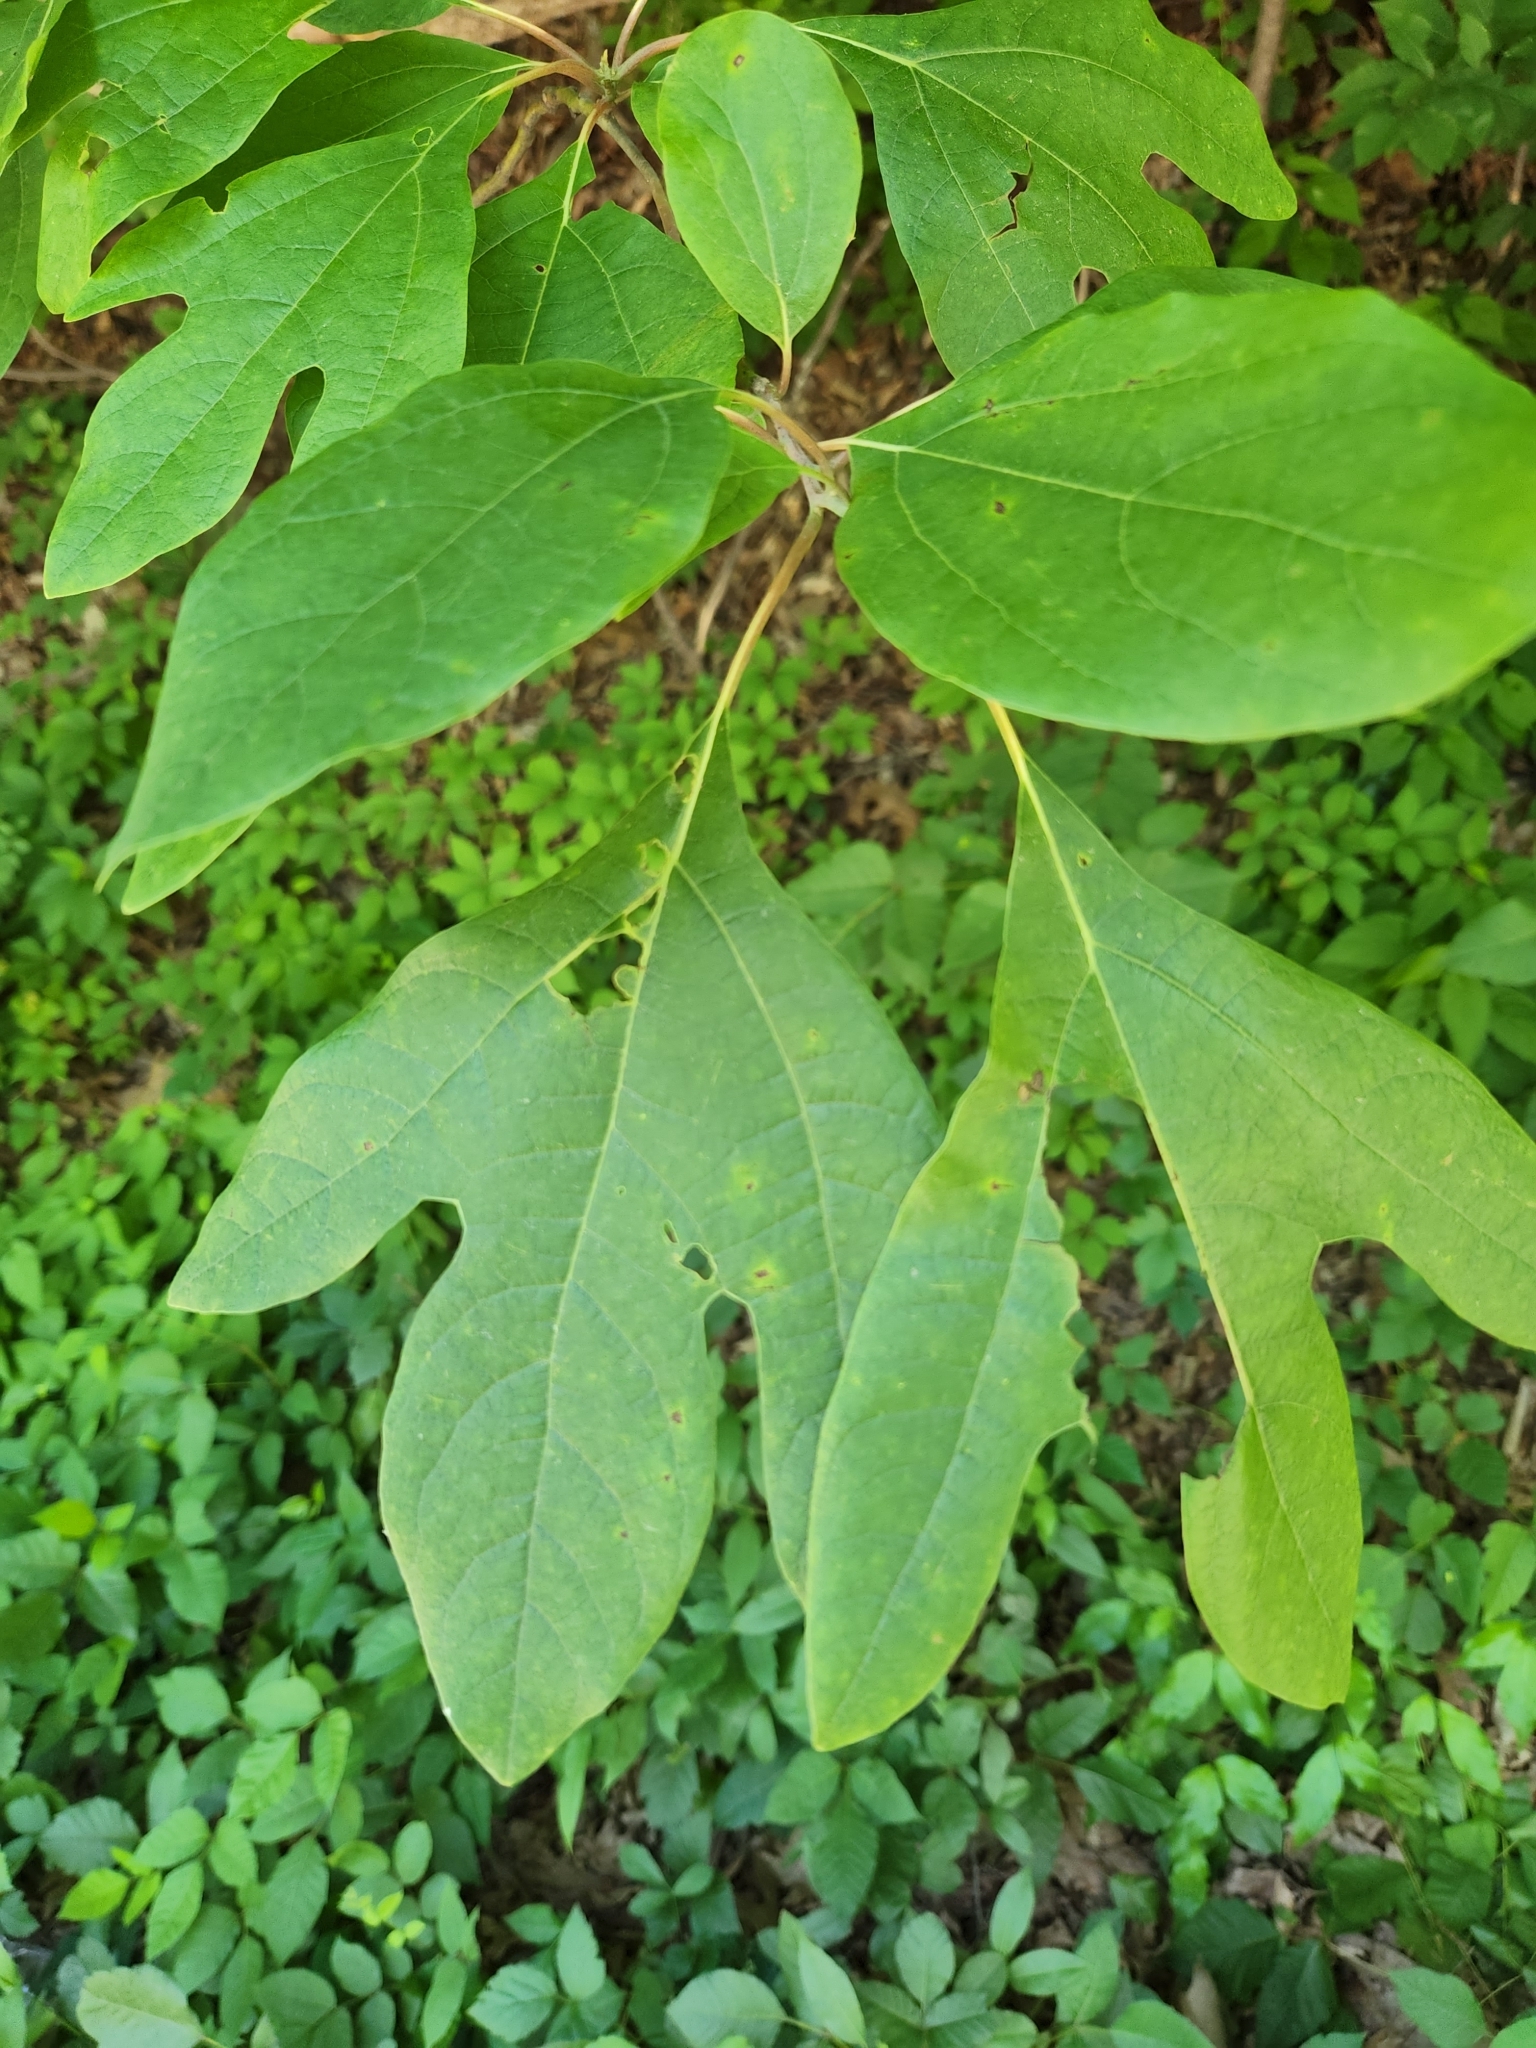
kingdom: Plantae
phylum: Tracheophyta
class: Magnoliopsida
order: Laurales
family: Lauraceae
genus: Sassafras
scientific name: Sassafras albidum
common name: Sassafras
